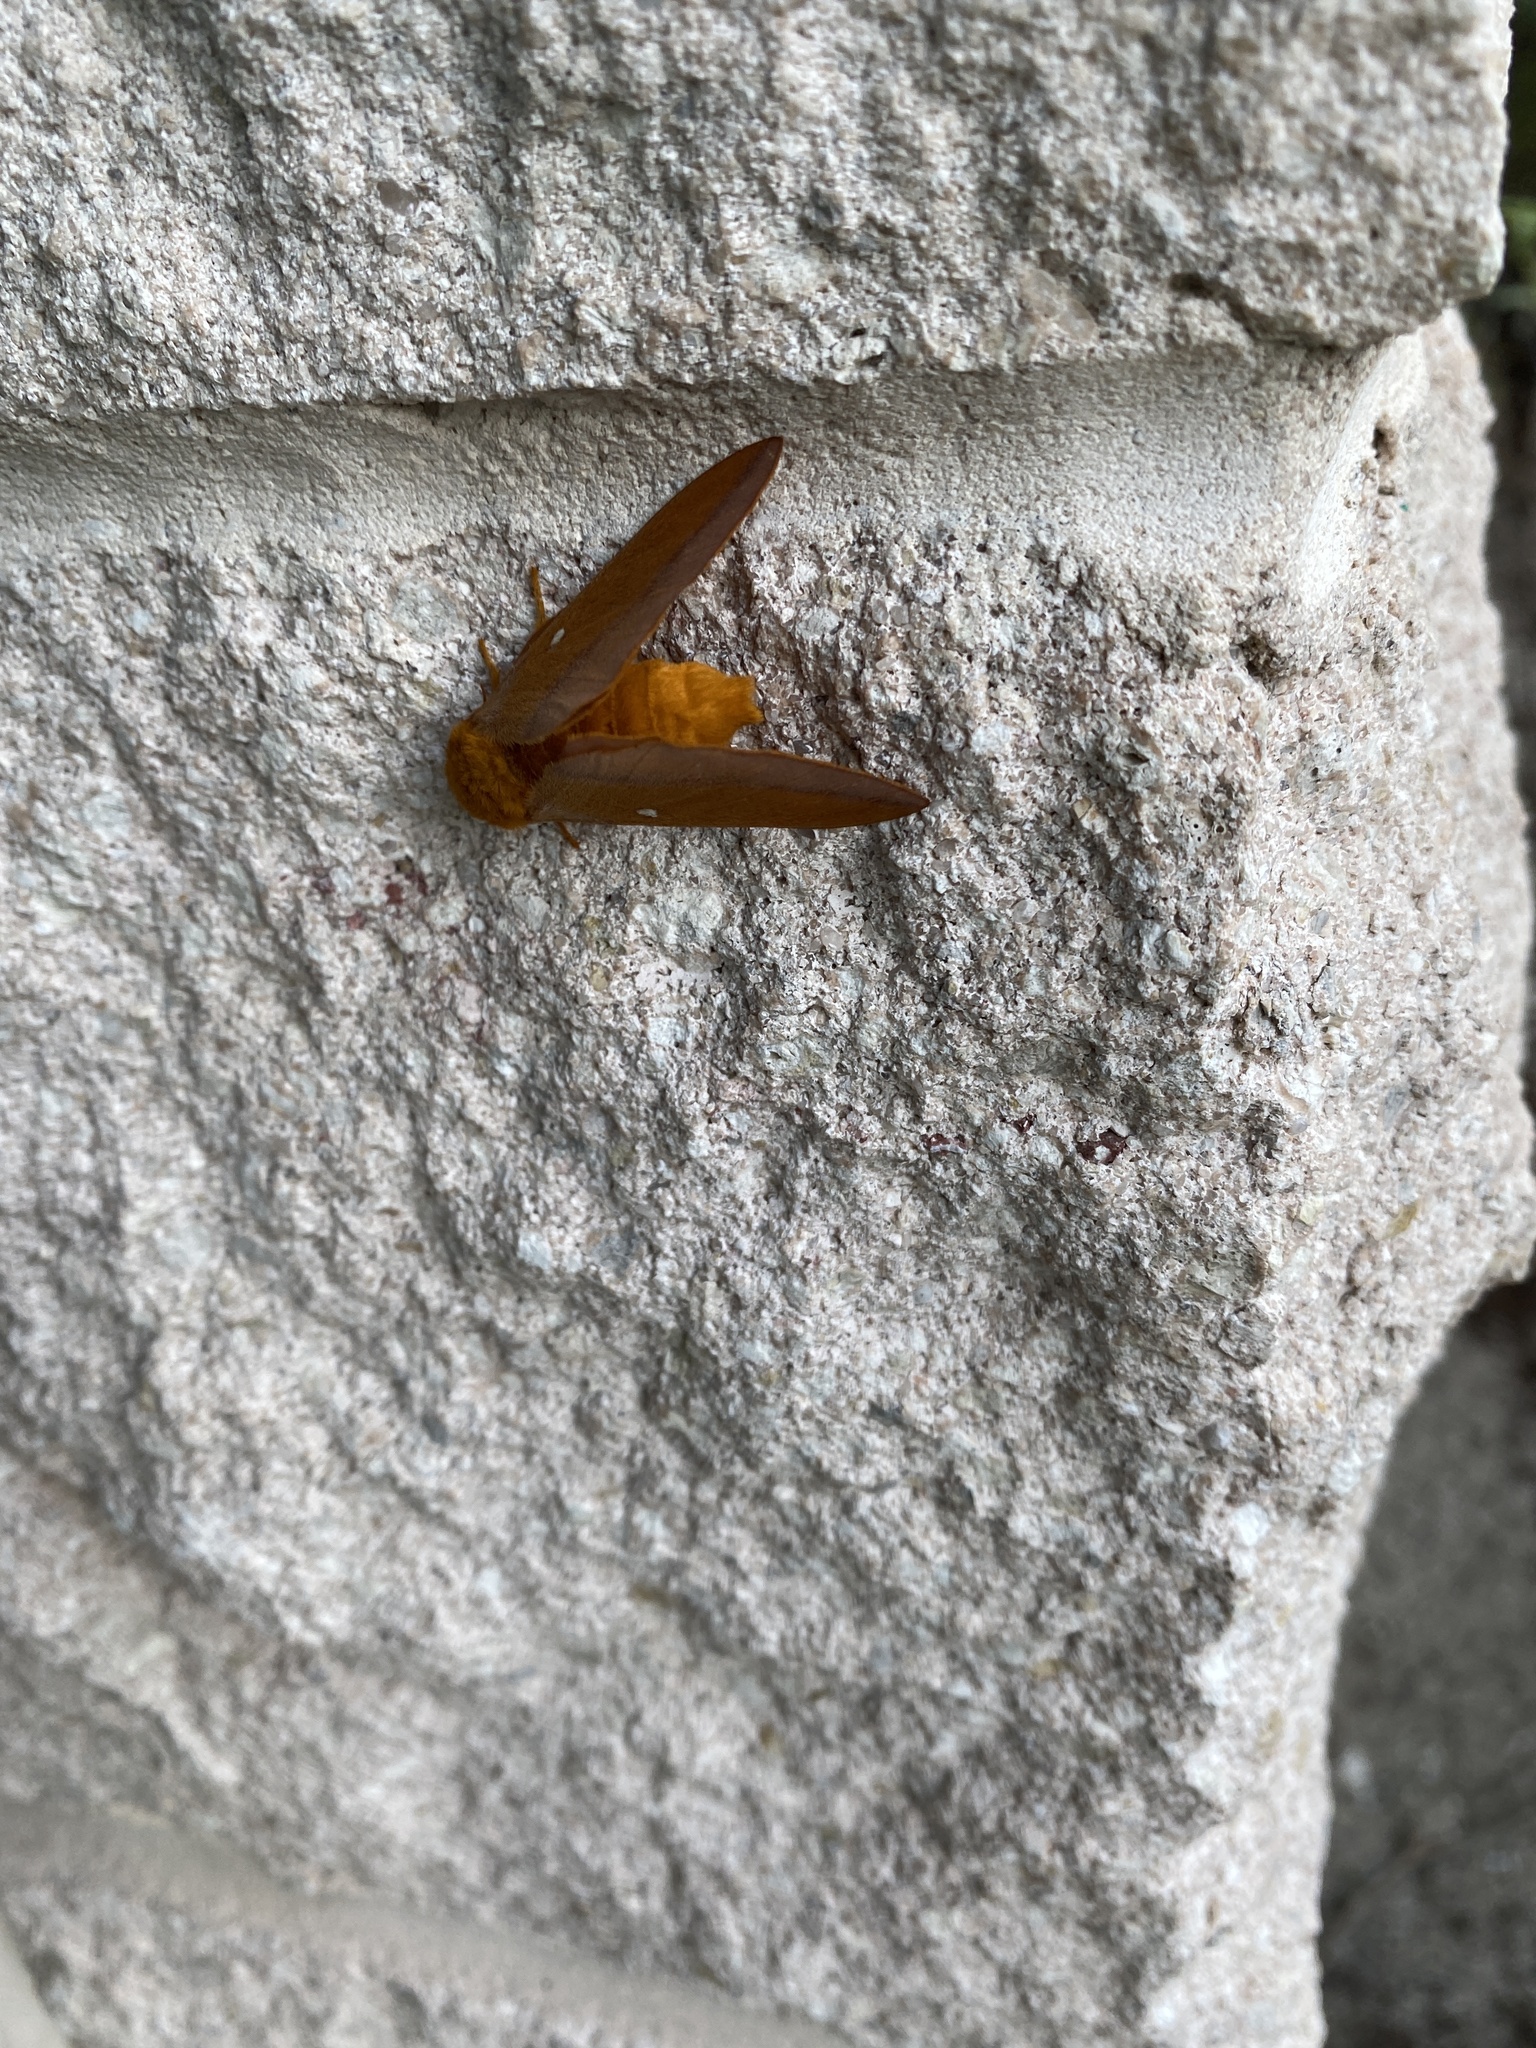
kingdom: Animalia
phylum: Arthropoda
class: Insecta
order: Lepidoptera
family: Saturniidae
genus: Anisota
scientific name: Anisota virginiensis
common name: Pink striped oakworm moth
